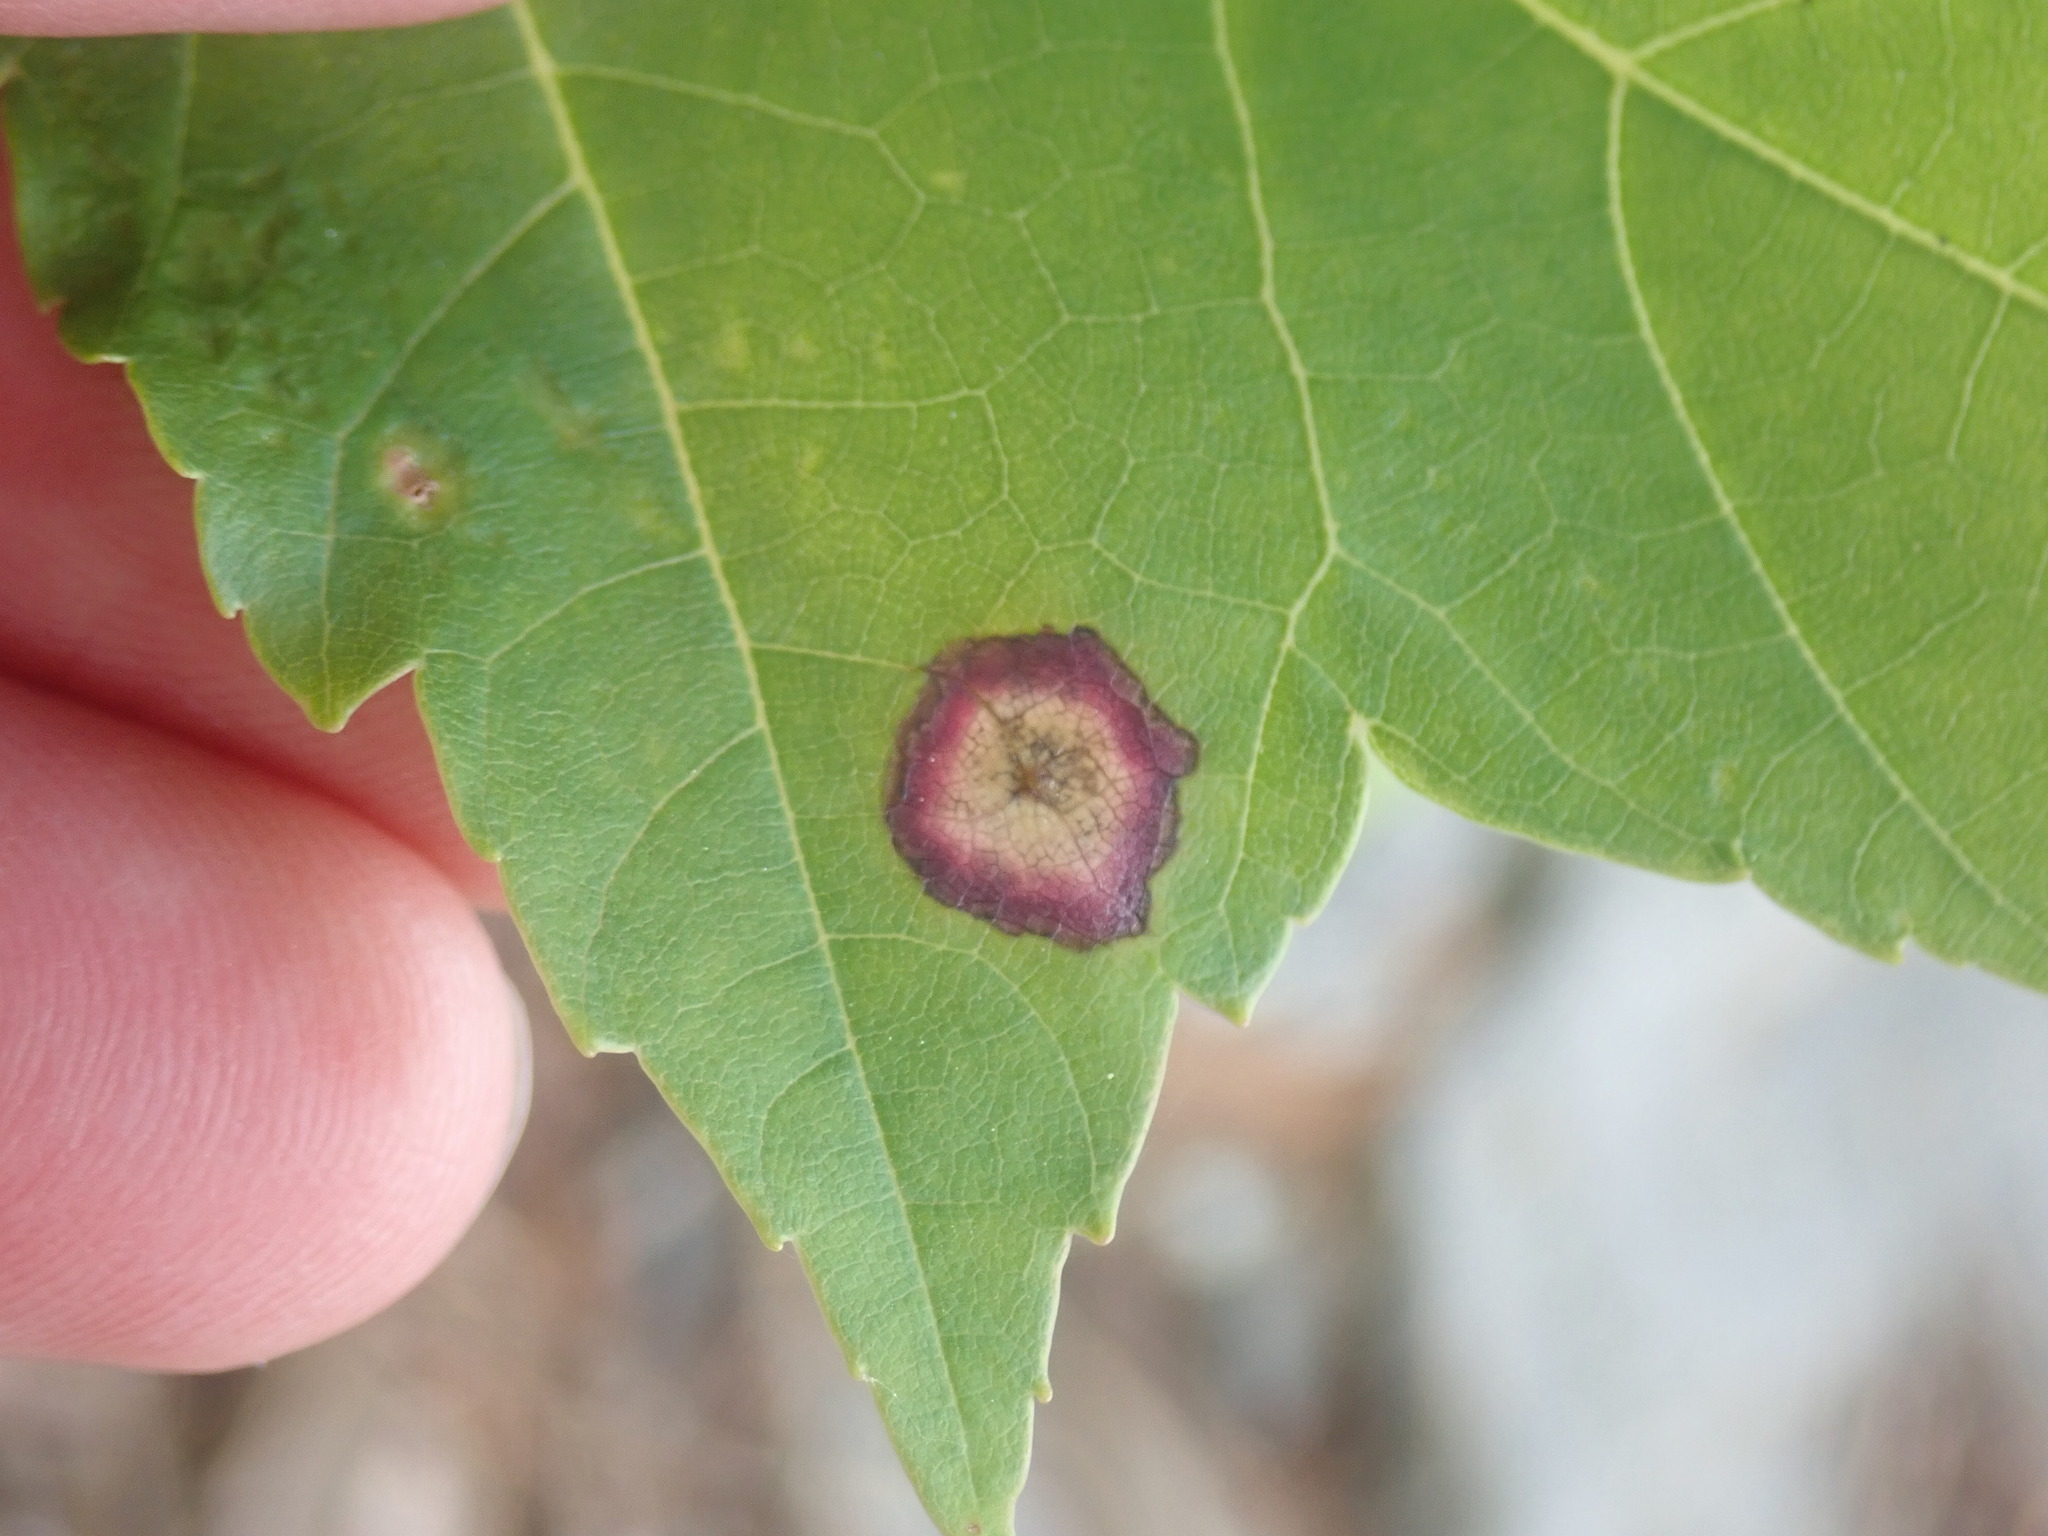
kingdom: Animalia
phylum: Arthropoda
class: Insecta
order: Diptera
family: Cecidomyiidae
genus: Acericecis
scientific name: Acericecis ocellaris
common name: Ocellate gall midge
